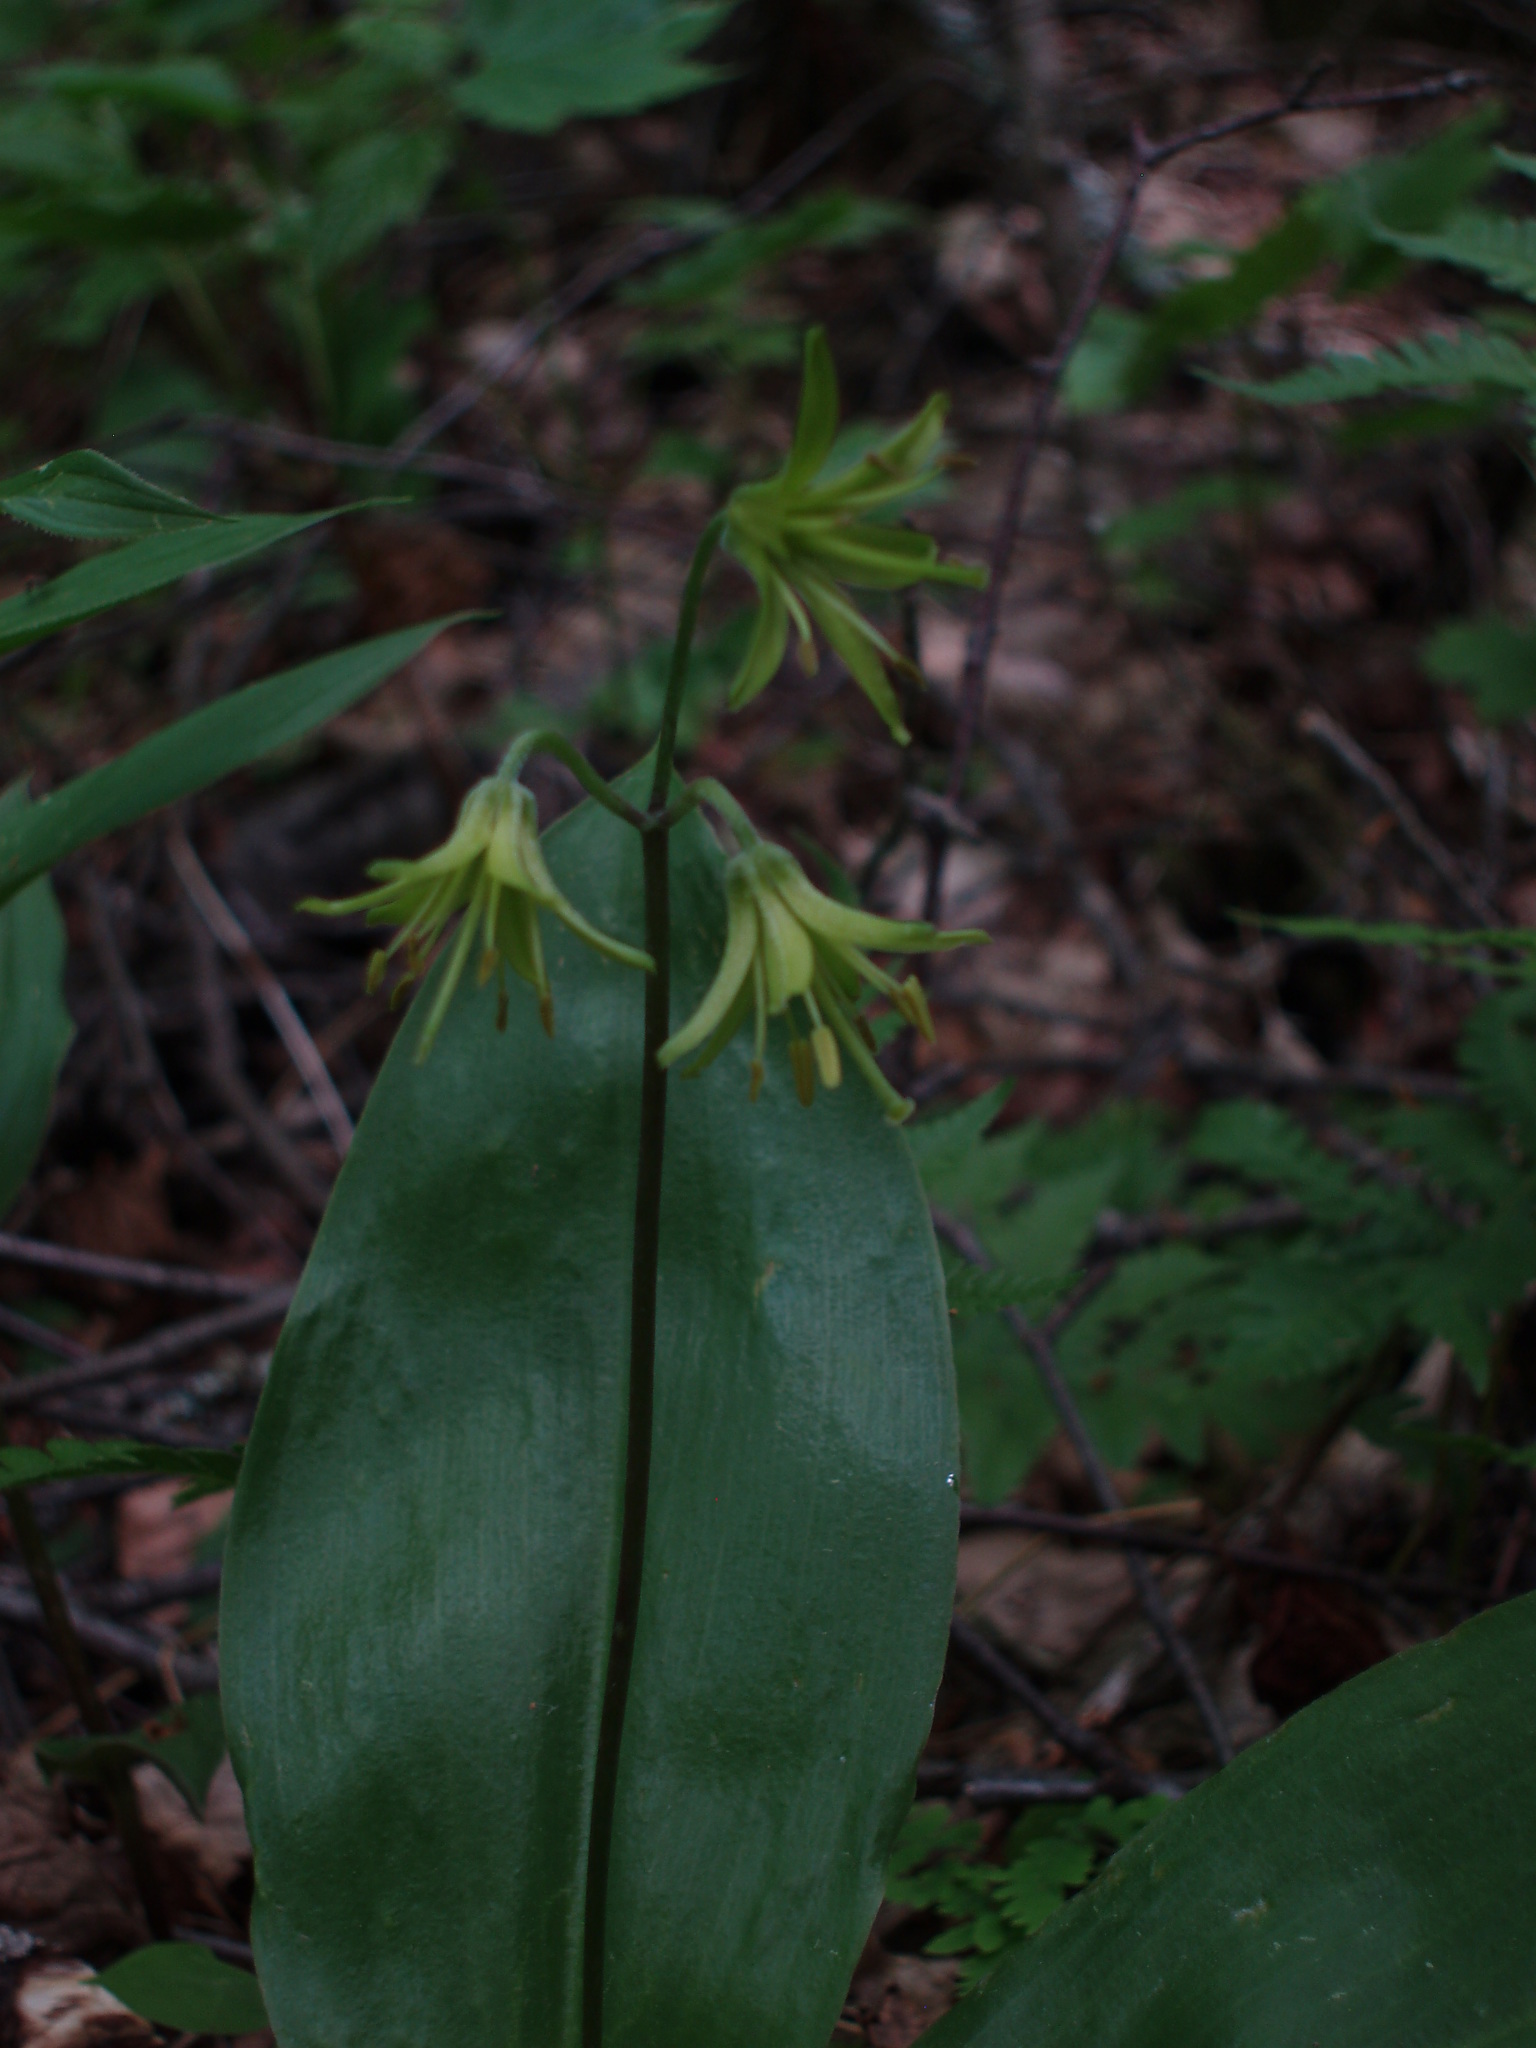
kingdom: Plantae
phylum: Tracheophyta
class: Liliopsida
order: Liliales
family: Liliaceae
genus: Clintonia
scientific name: Clintonia borealis
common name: Yellow clintonia
